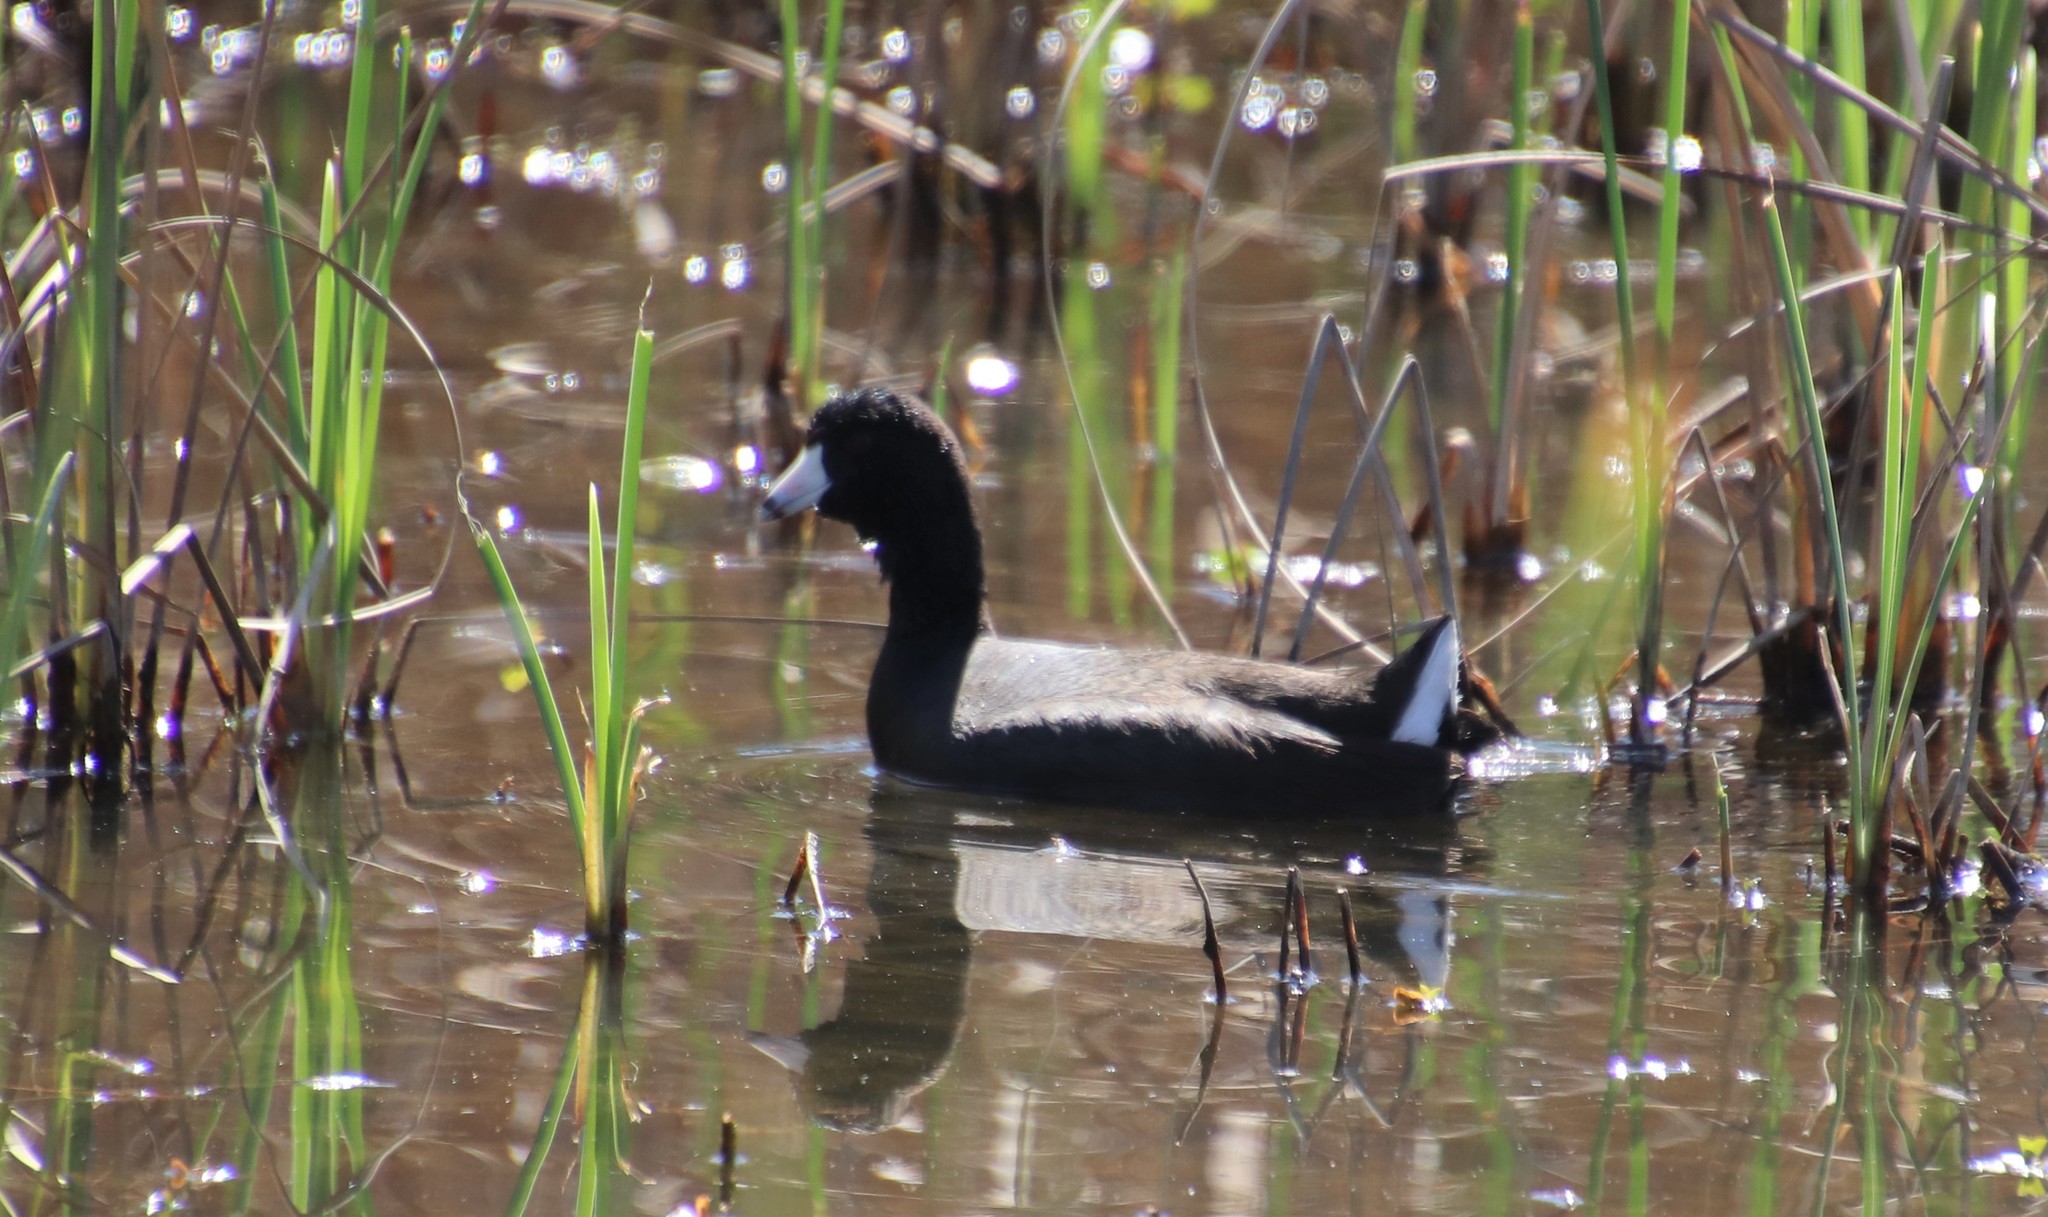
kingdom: Animalia
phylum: Chordata
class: Aves
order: Gruiformes
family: Rallidae
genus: Fulica
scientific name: Fulica americana
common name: American coot
